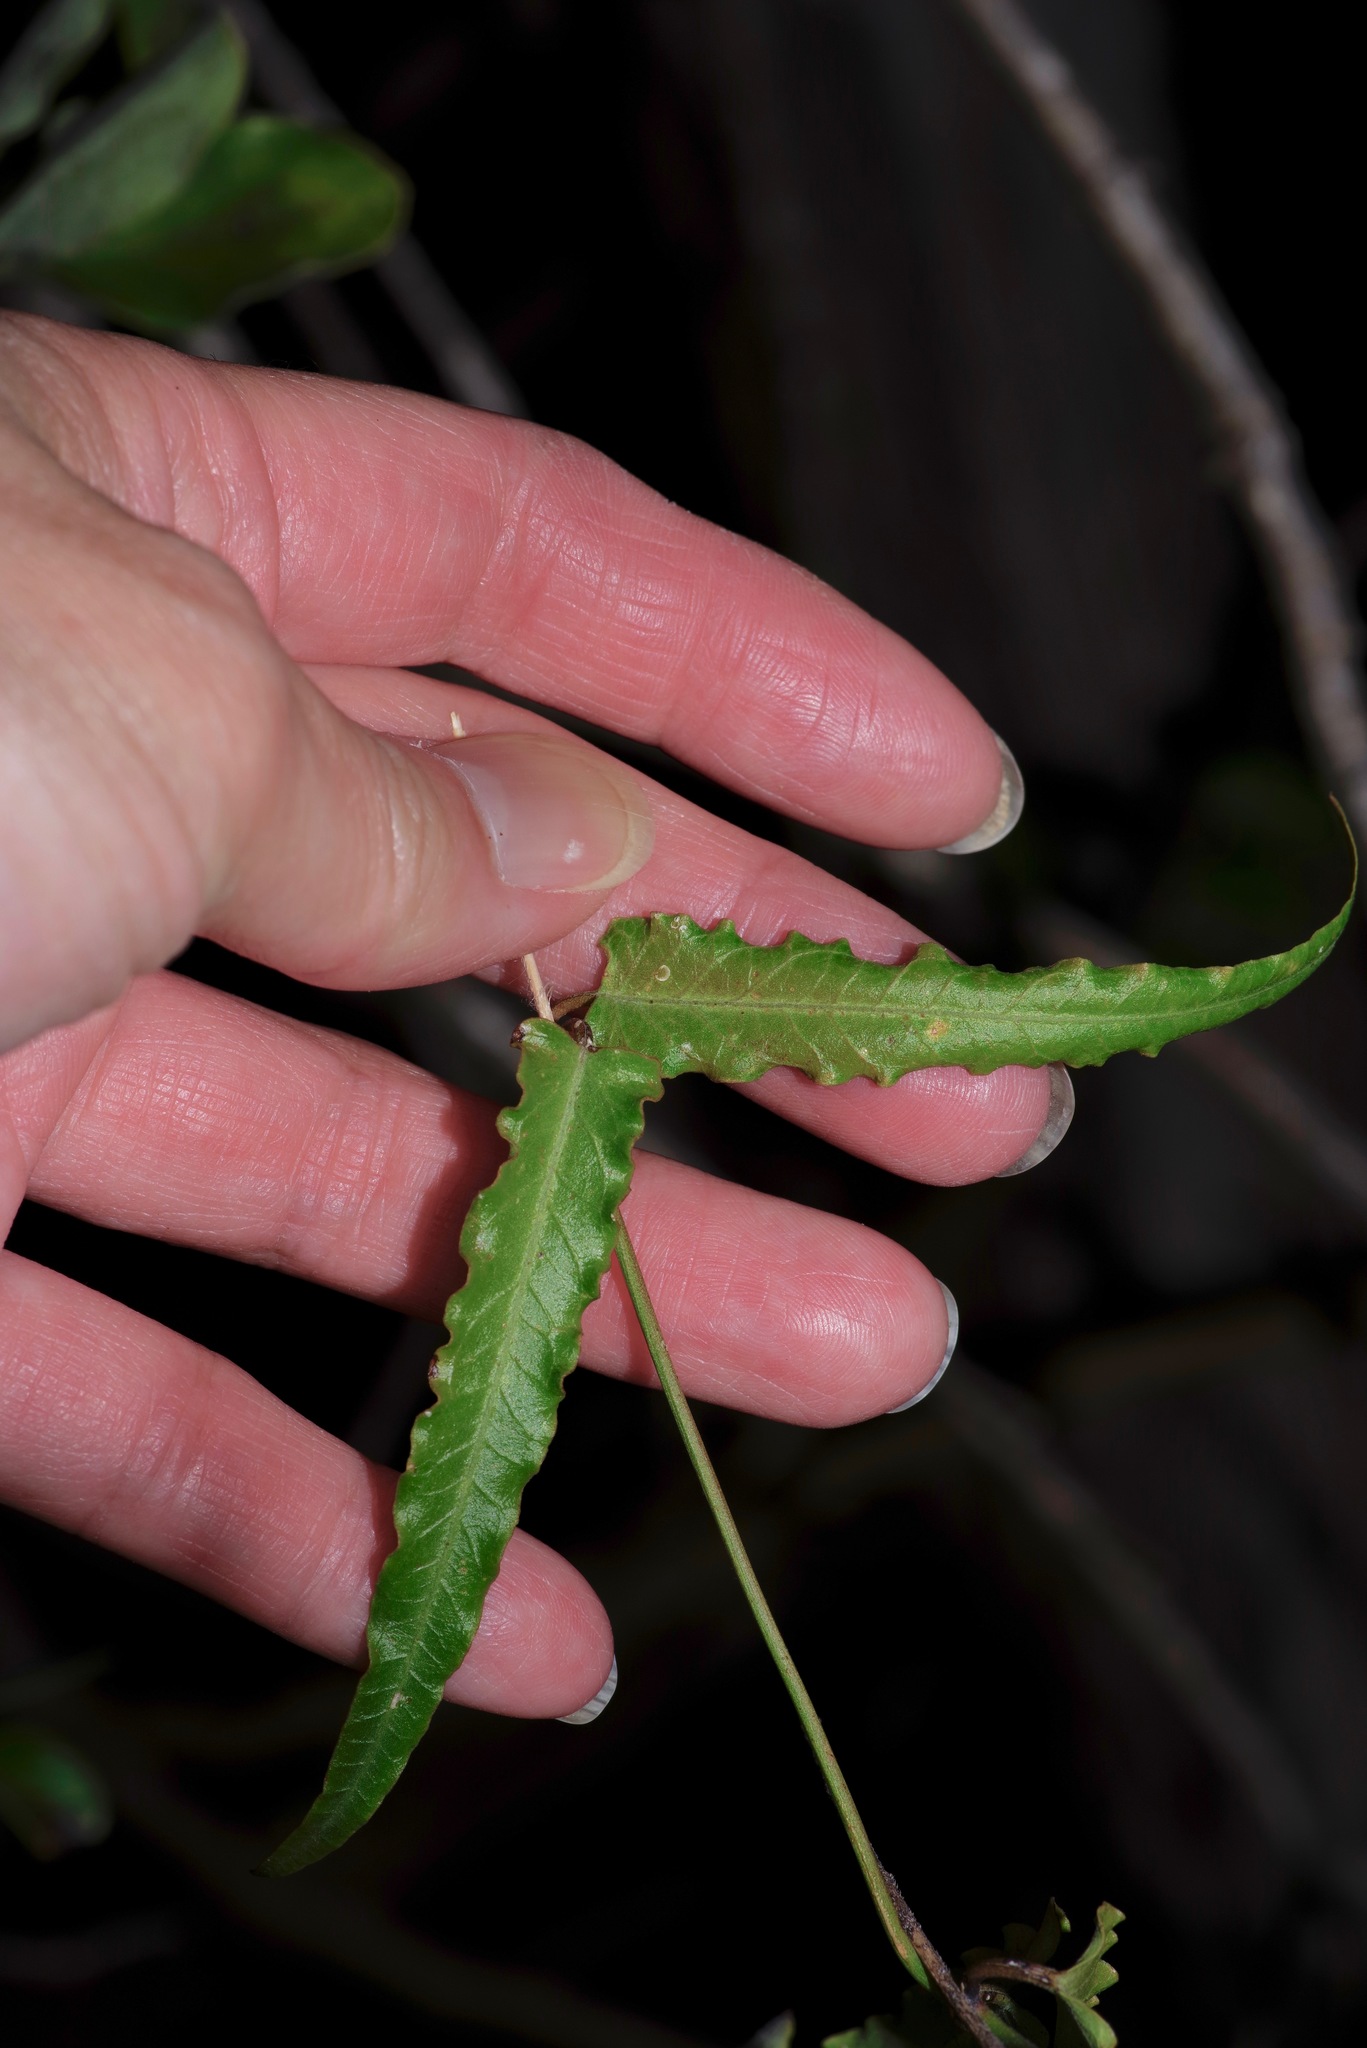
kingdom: Plantae
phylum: Tracheophyta
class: Magnoliopsida
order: Gentianales
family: Apocynaceae
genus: Funastrum
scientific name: Funastrum crispum
